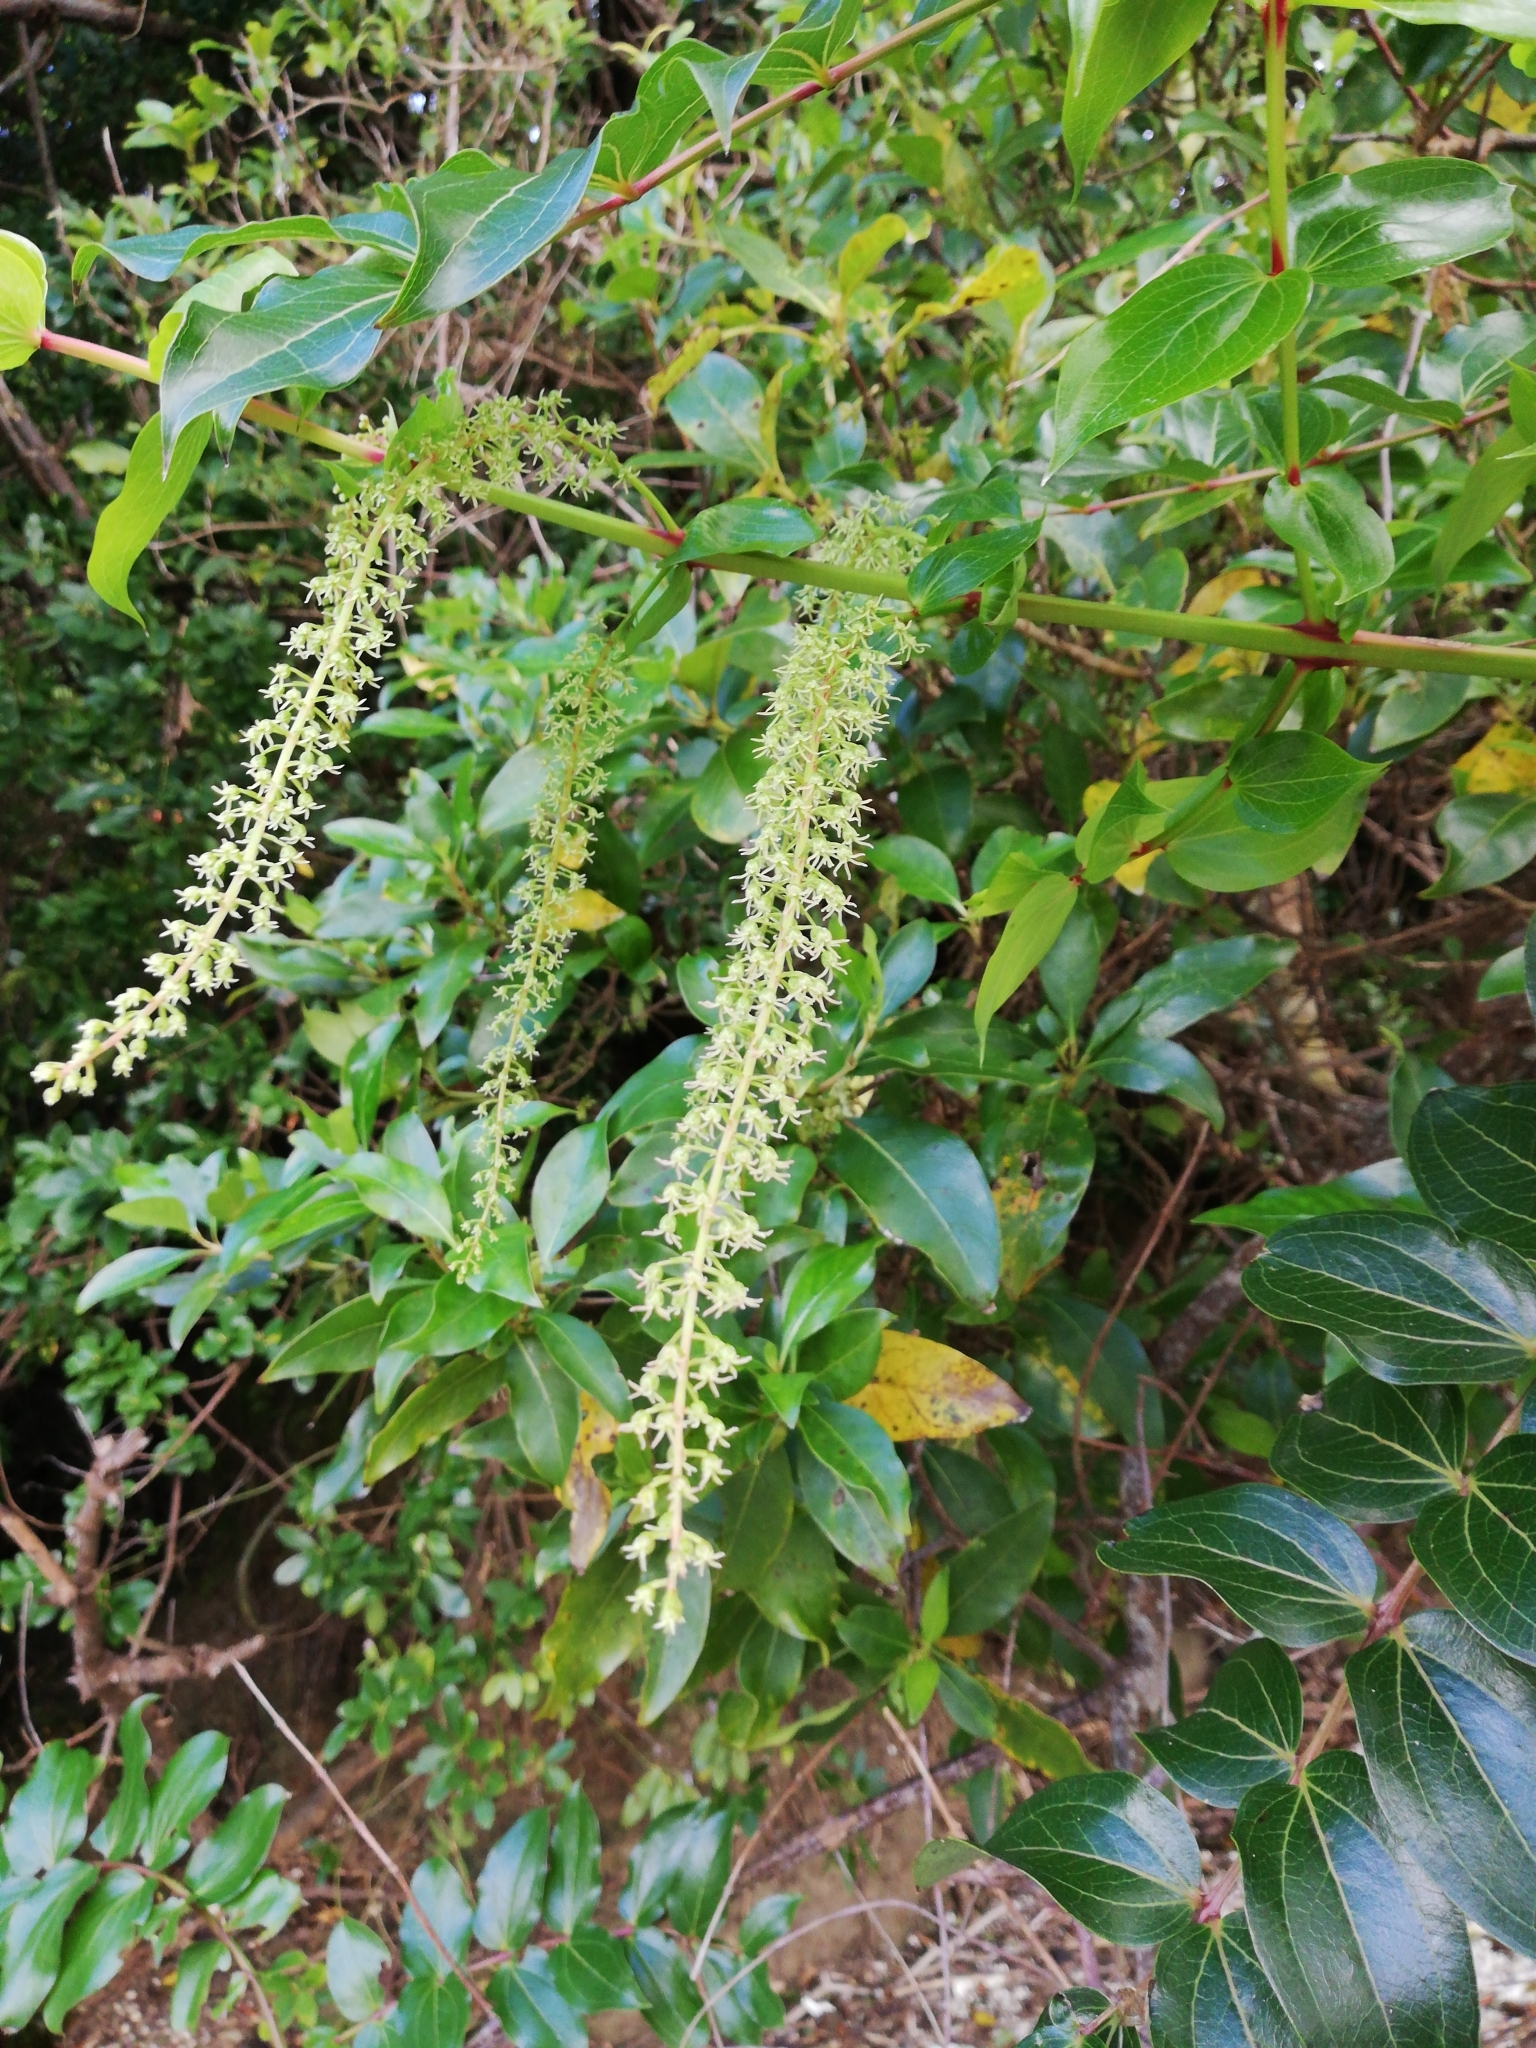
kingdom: Plantae
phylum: Tracheophyta
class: Magnoliopsida
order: Cucurbitales
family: Coriariaceae
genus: Coriaria
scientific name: Coriaria arborea
